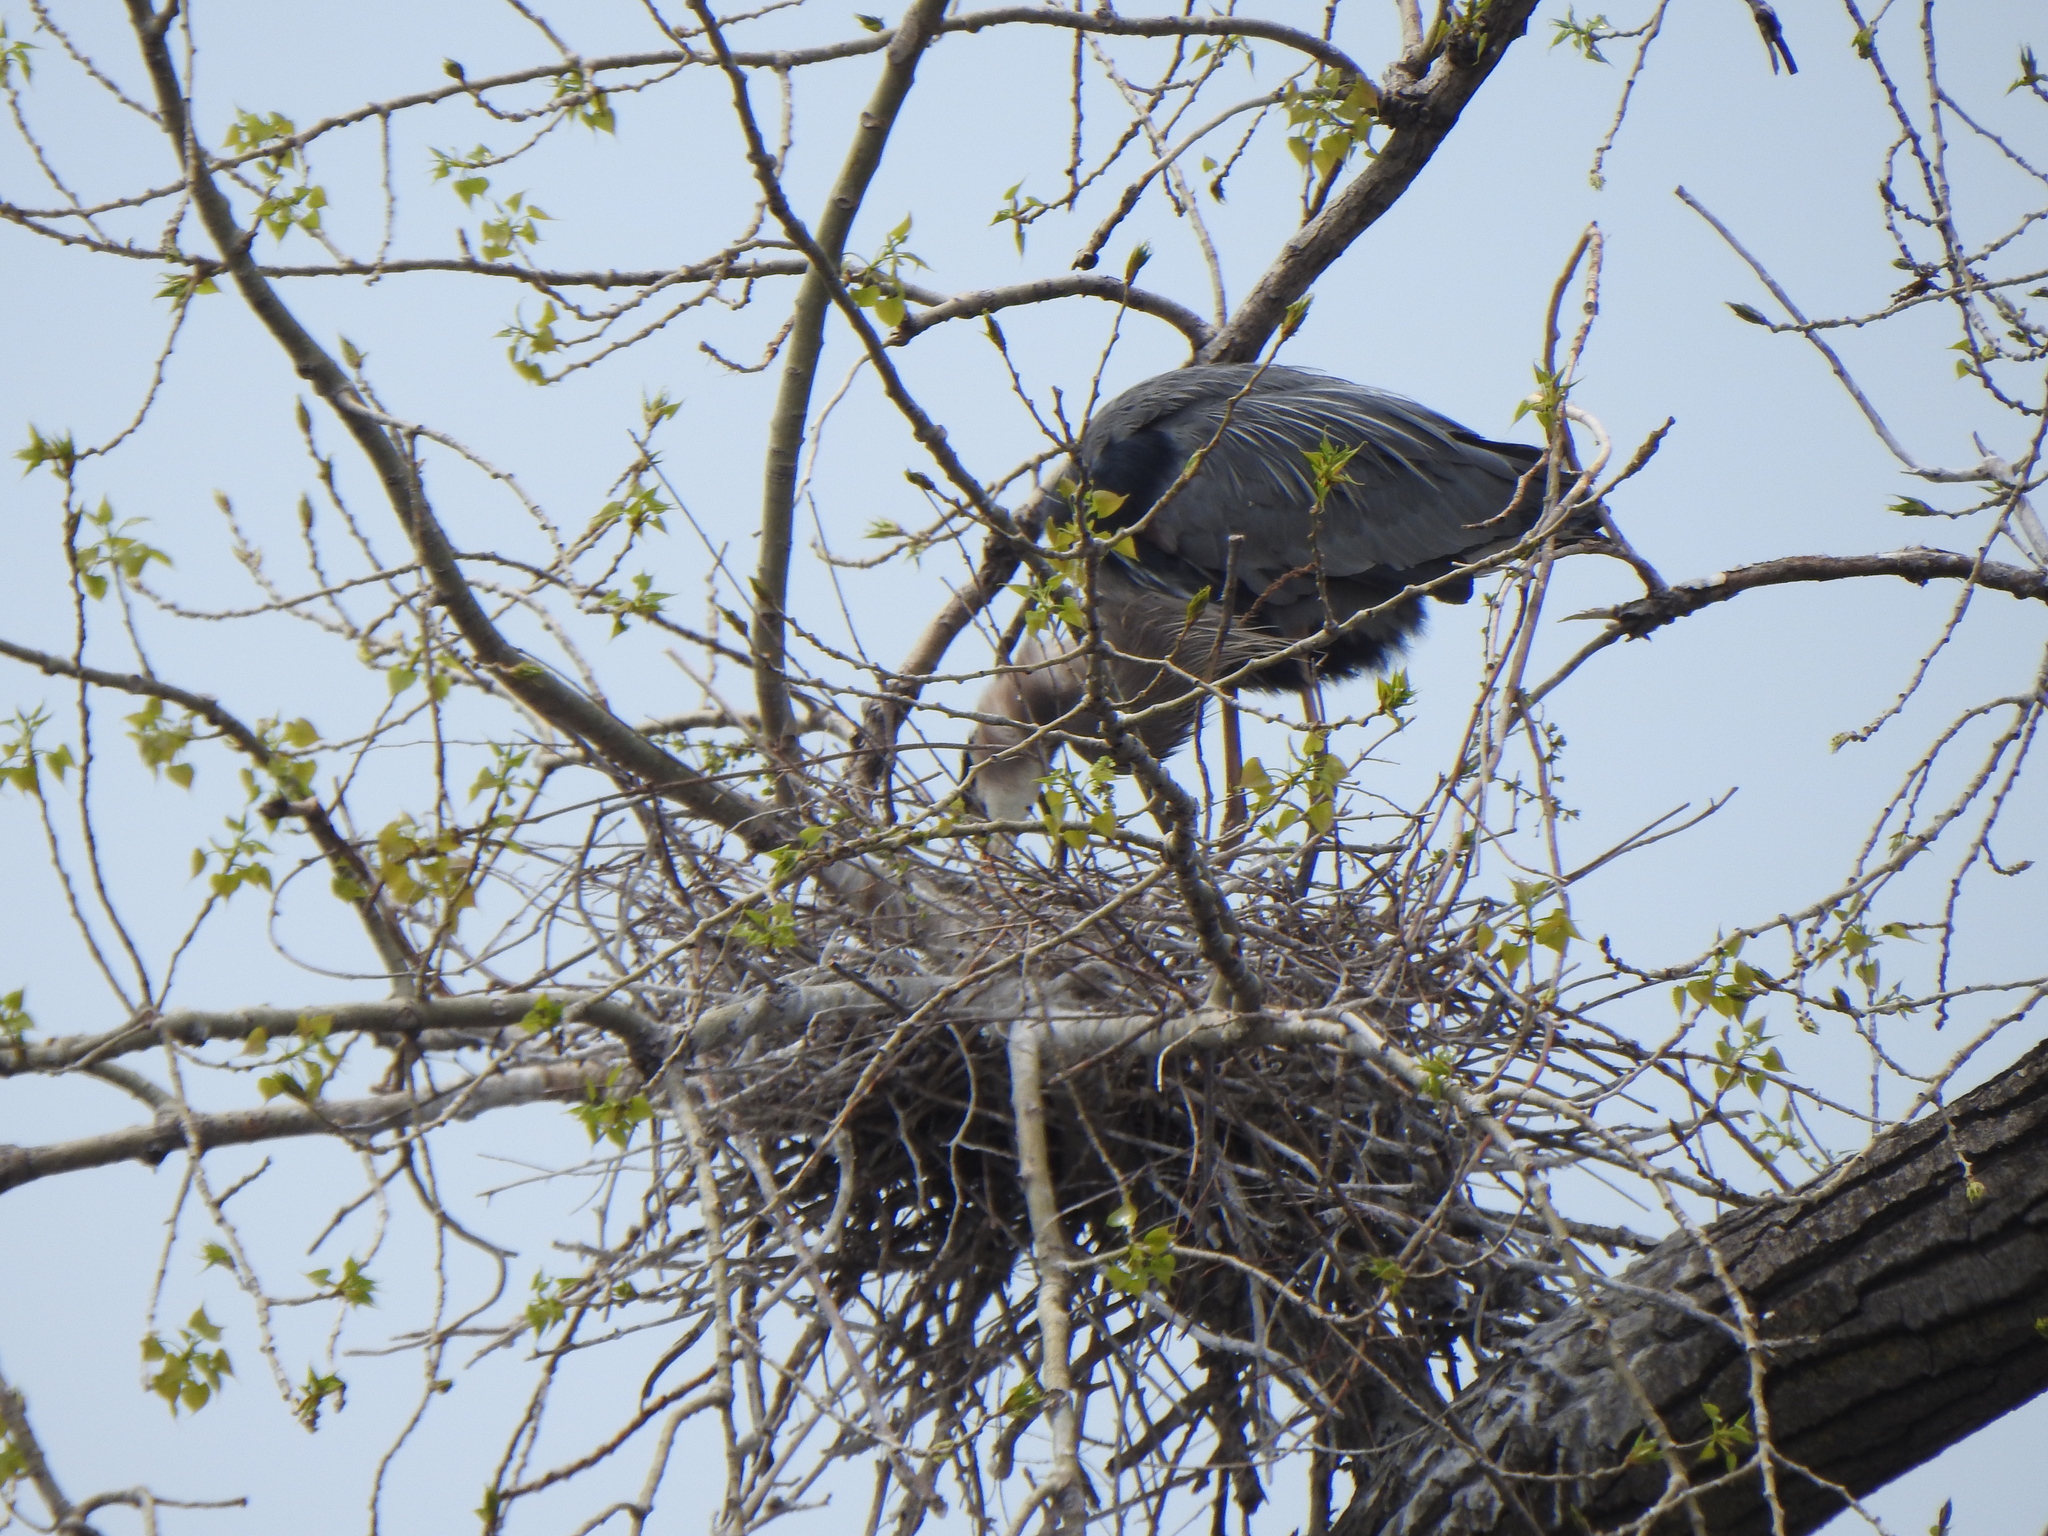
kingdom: Animalia
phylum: Chordata
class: Aves
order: Pelecaniformes
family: Ardeidae
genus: Ardea
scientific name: Ardea herodias
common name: Great blue heron
